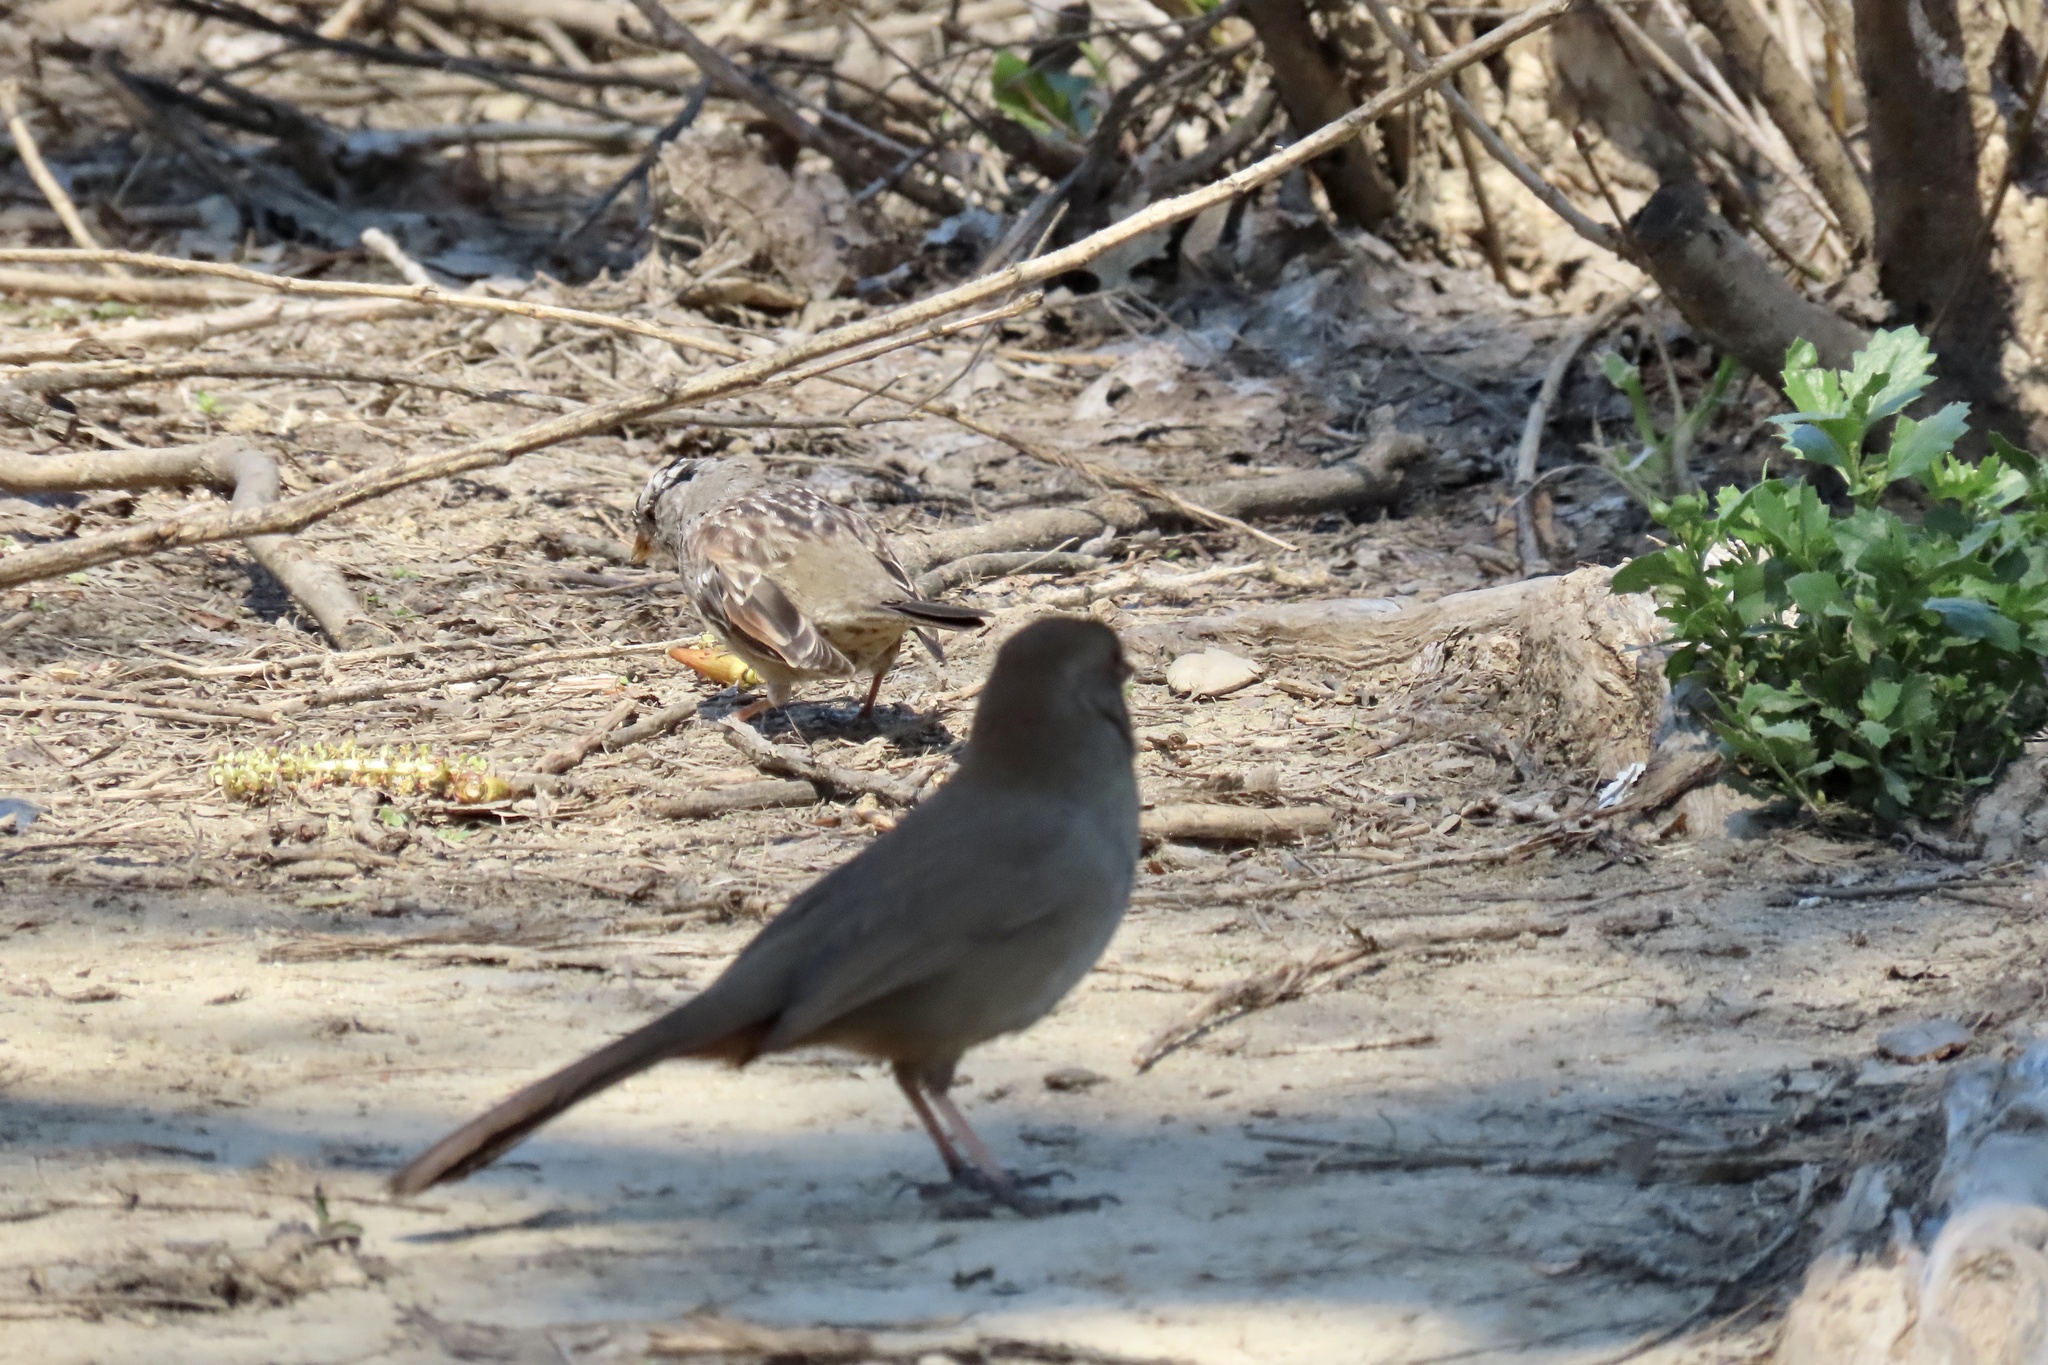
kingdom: Animalia
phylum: Chordata
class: Aves
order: Passeriformes
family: Passerellidae
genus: Melozone
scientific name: Melozone crissalis
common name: California towhee
